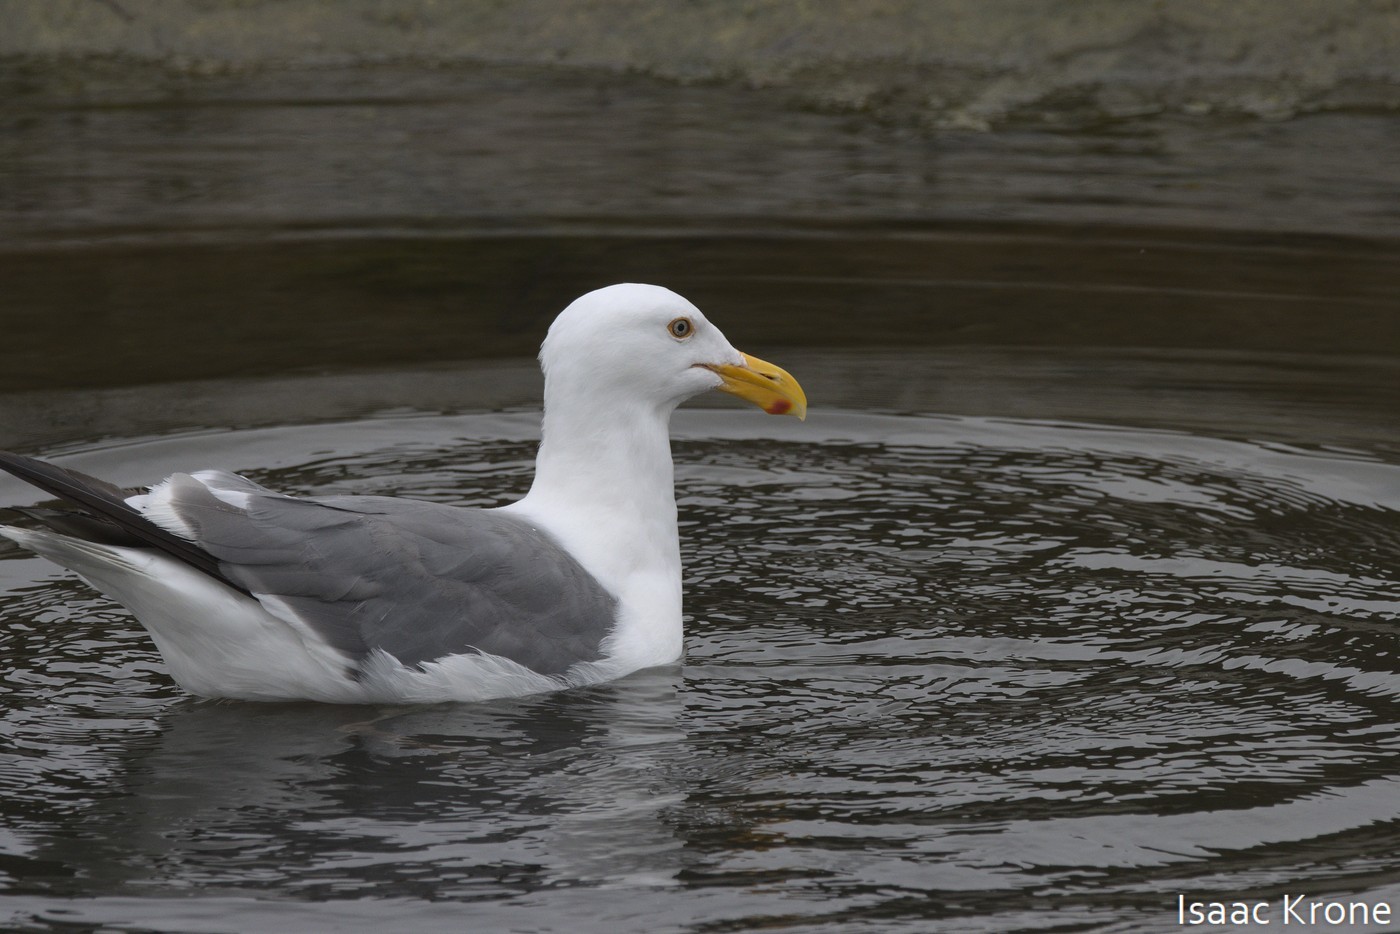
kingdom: Animalia
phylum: Chordata
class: Aves
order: Charadriiformes
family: Laridae
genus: Larus
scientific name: Larus occidentalis
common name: Western gull
